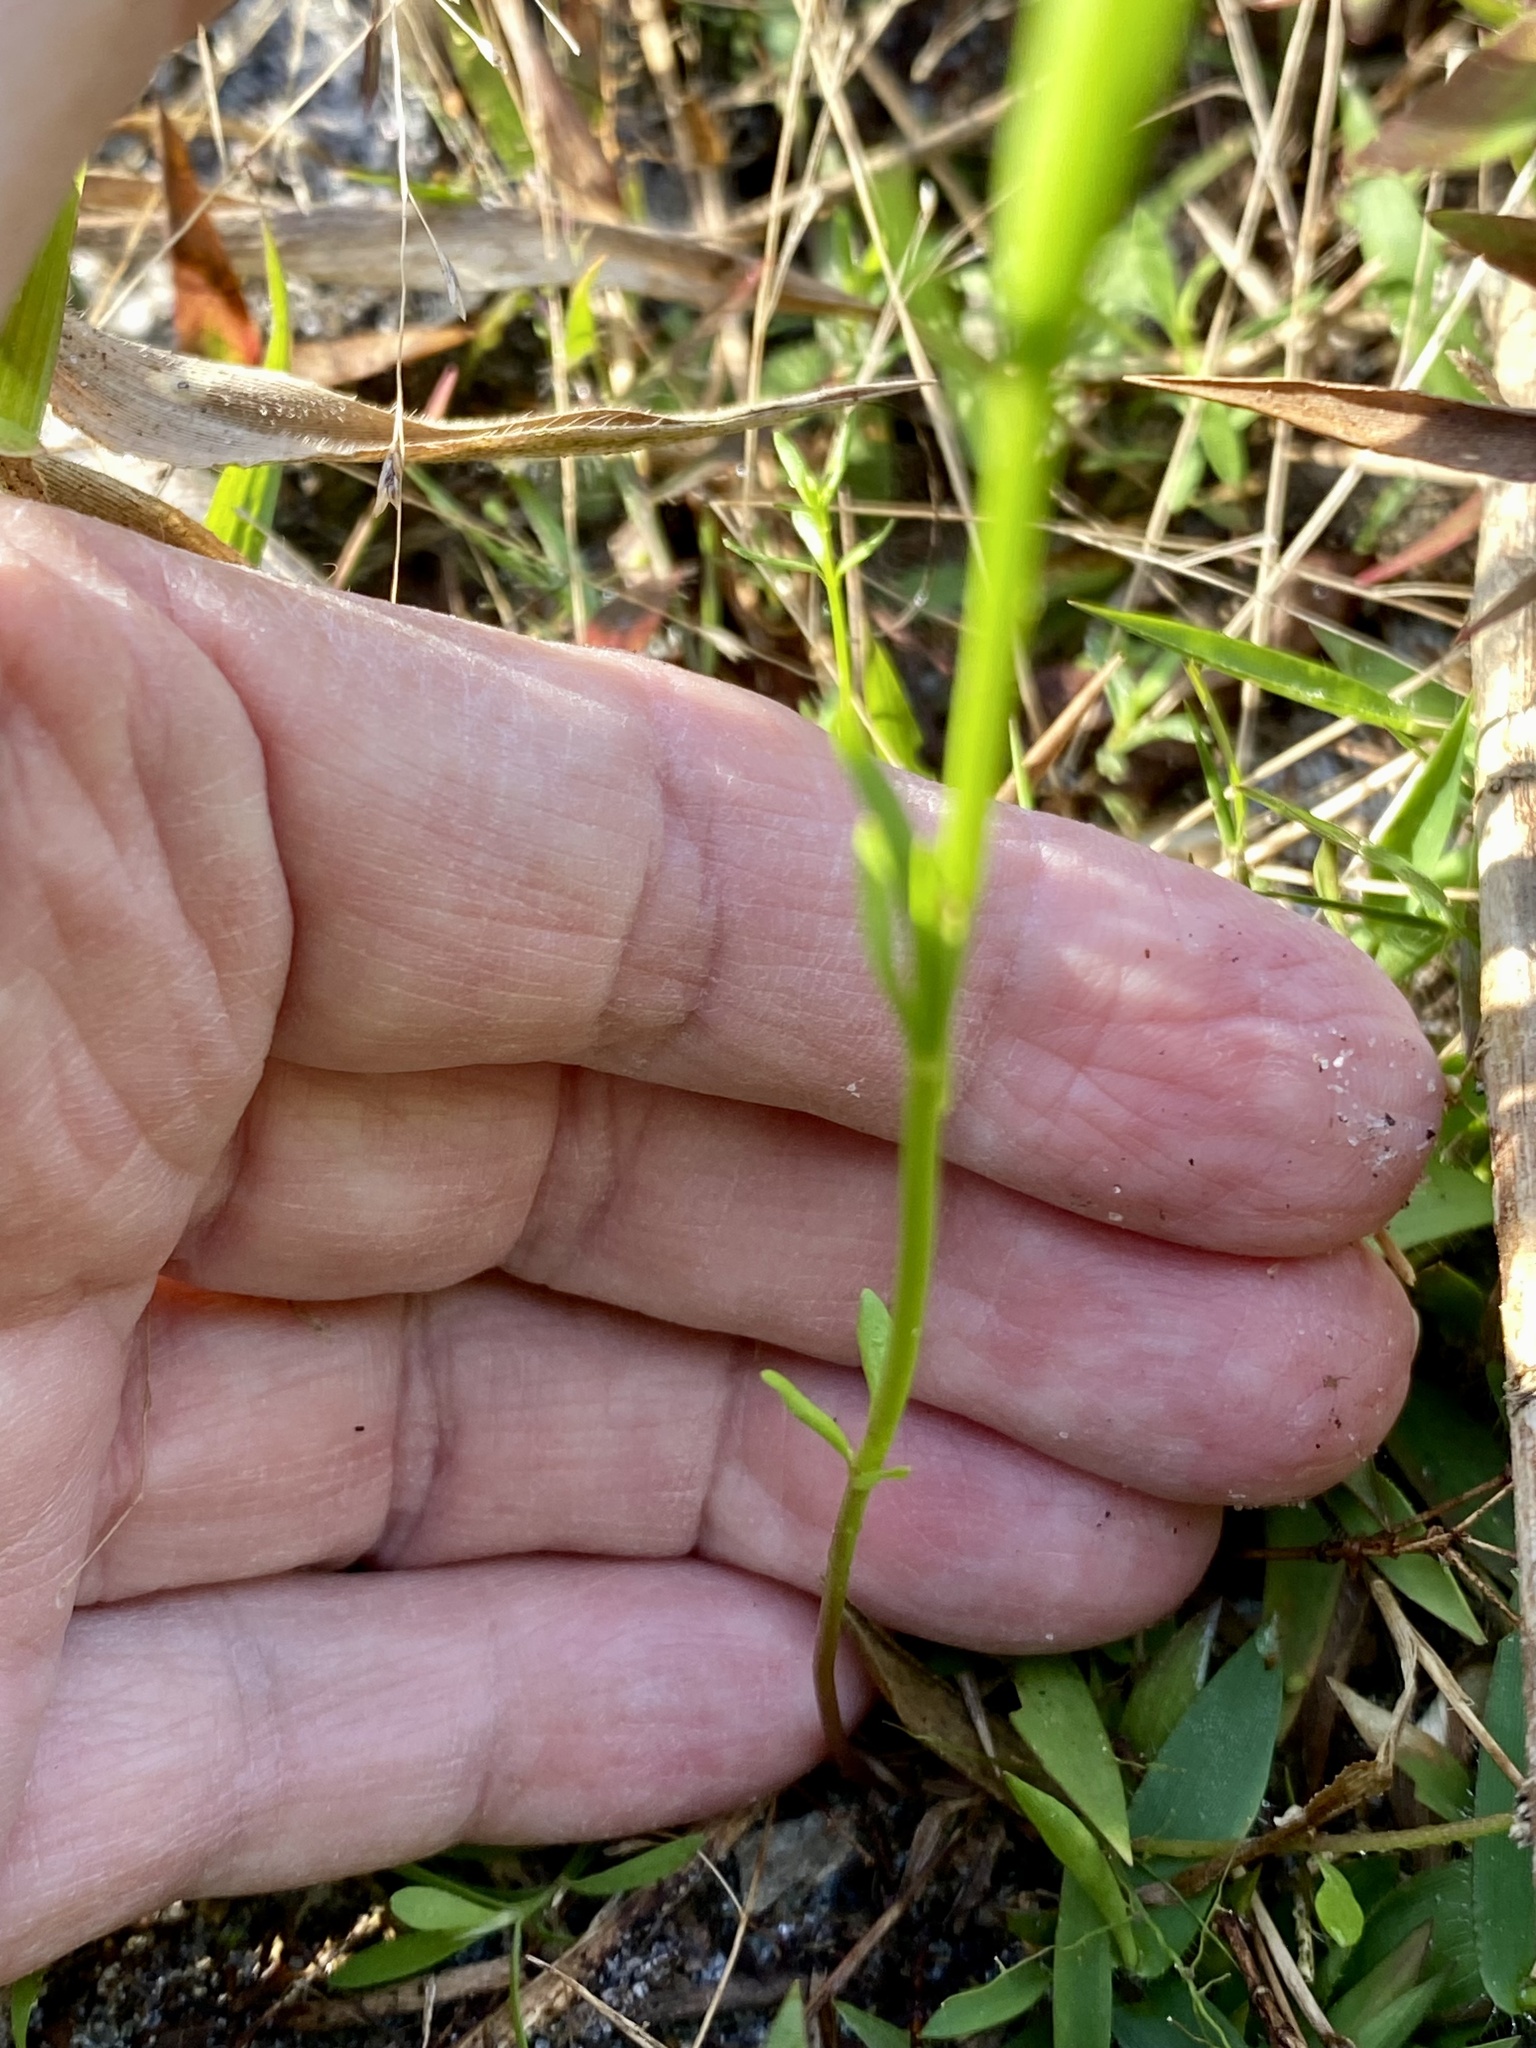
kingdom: Plantae
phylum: Tracheophyta
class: Magnoliopsida
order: Lamiales
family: Plantaginaceae
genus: Nuttallanthus
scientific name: Nuttallanthus canadensis
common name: Blue toadflax
